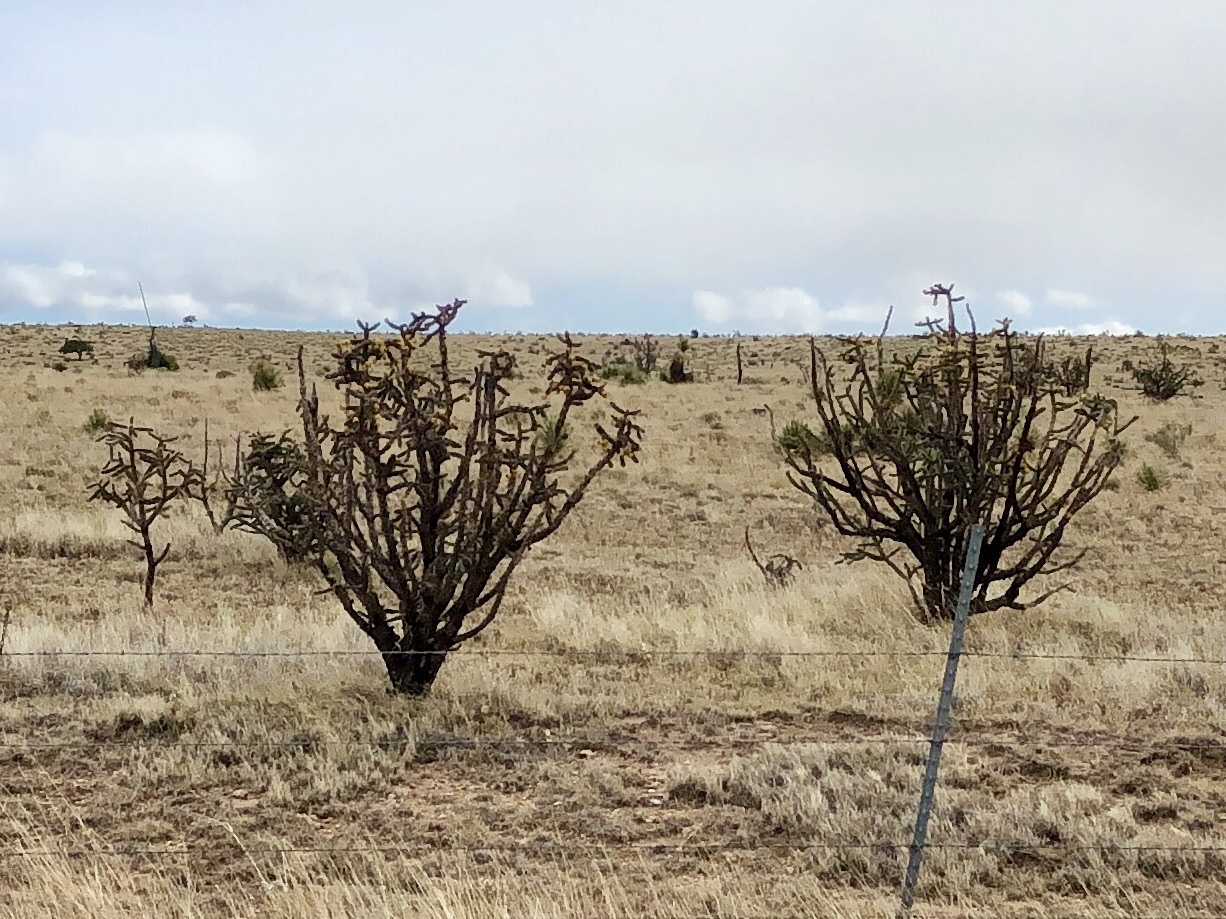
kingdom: Plantae
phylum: Tracheophyta
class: Magnoliopsida
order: Caryophyllales
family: Cactaceae
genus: Cylindropuntia
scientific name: Cylindropuntia imbricata
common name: Candelabrum cactus
